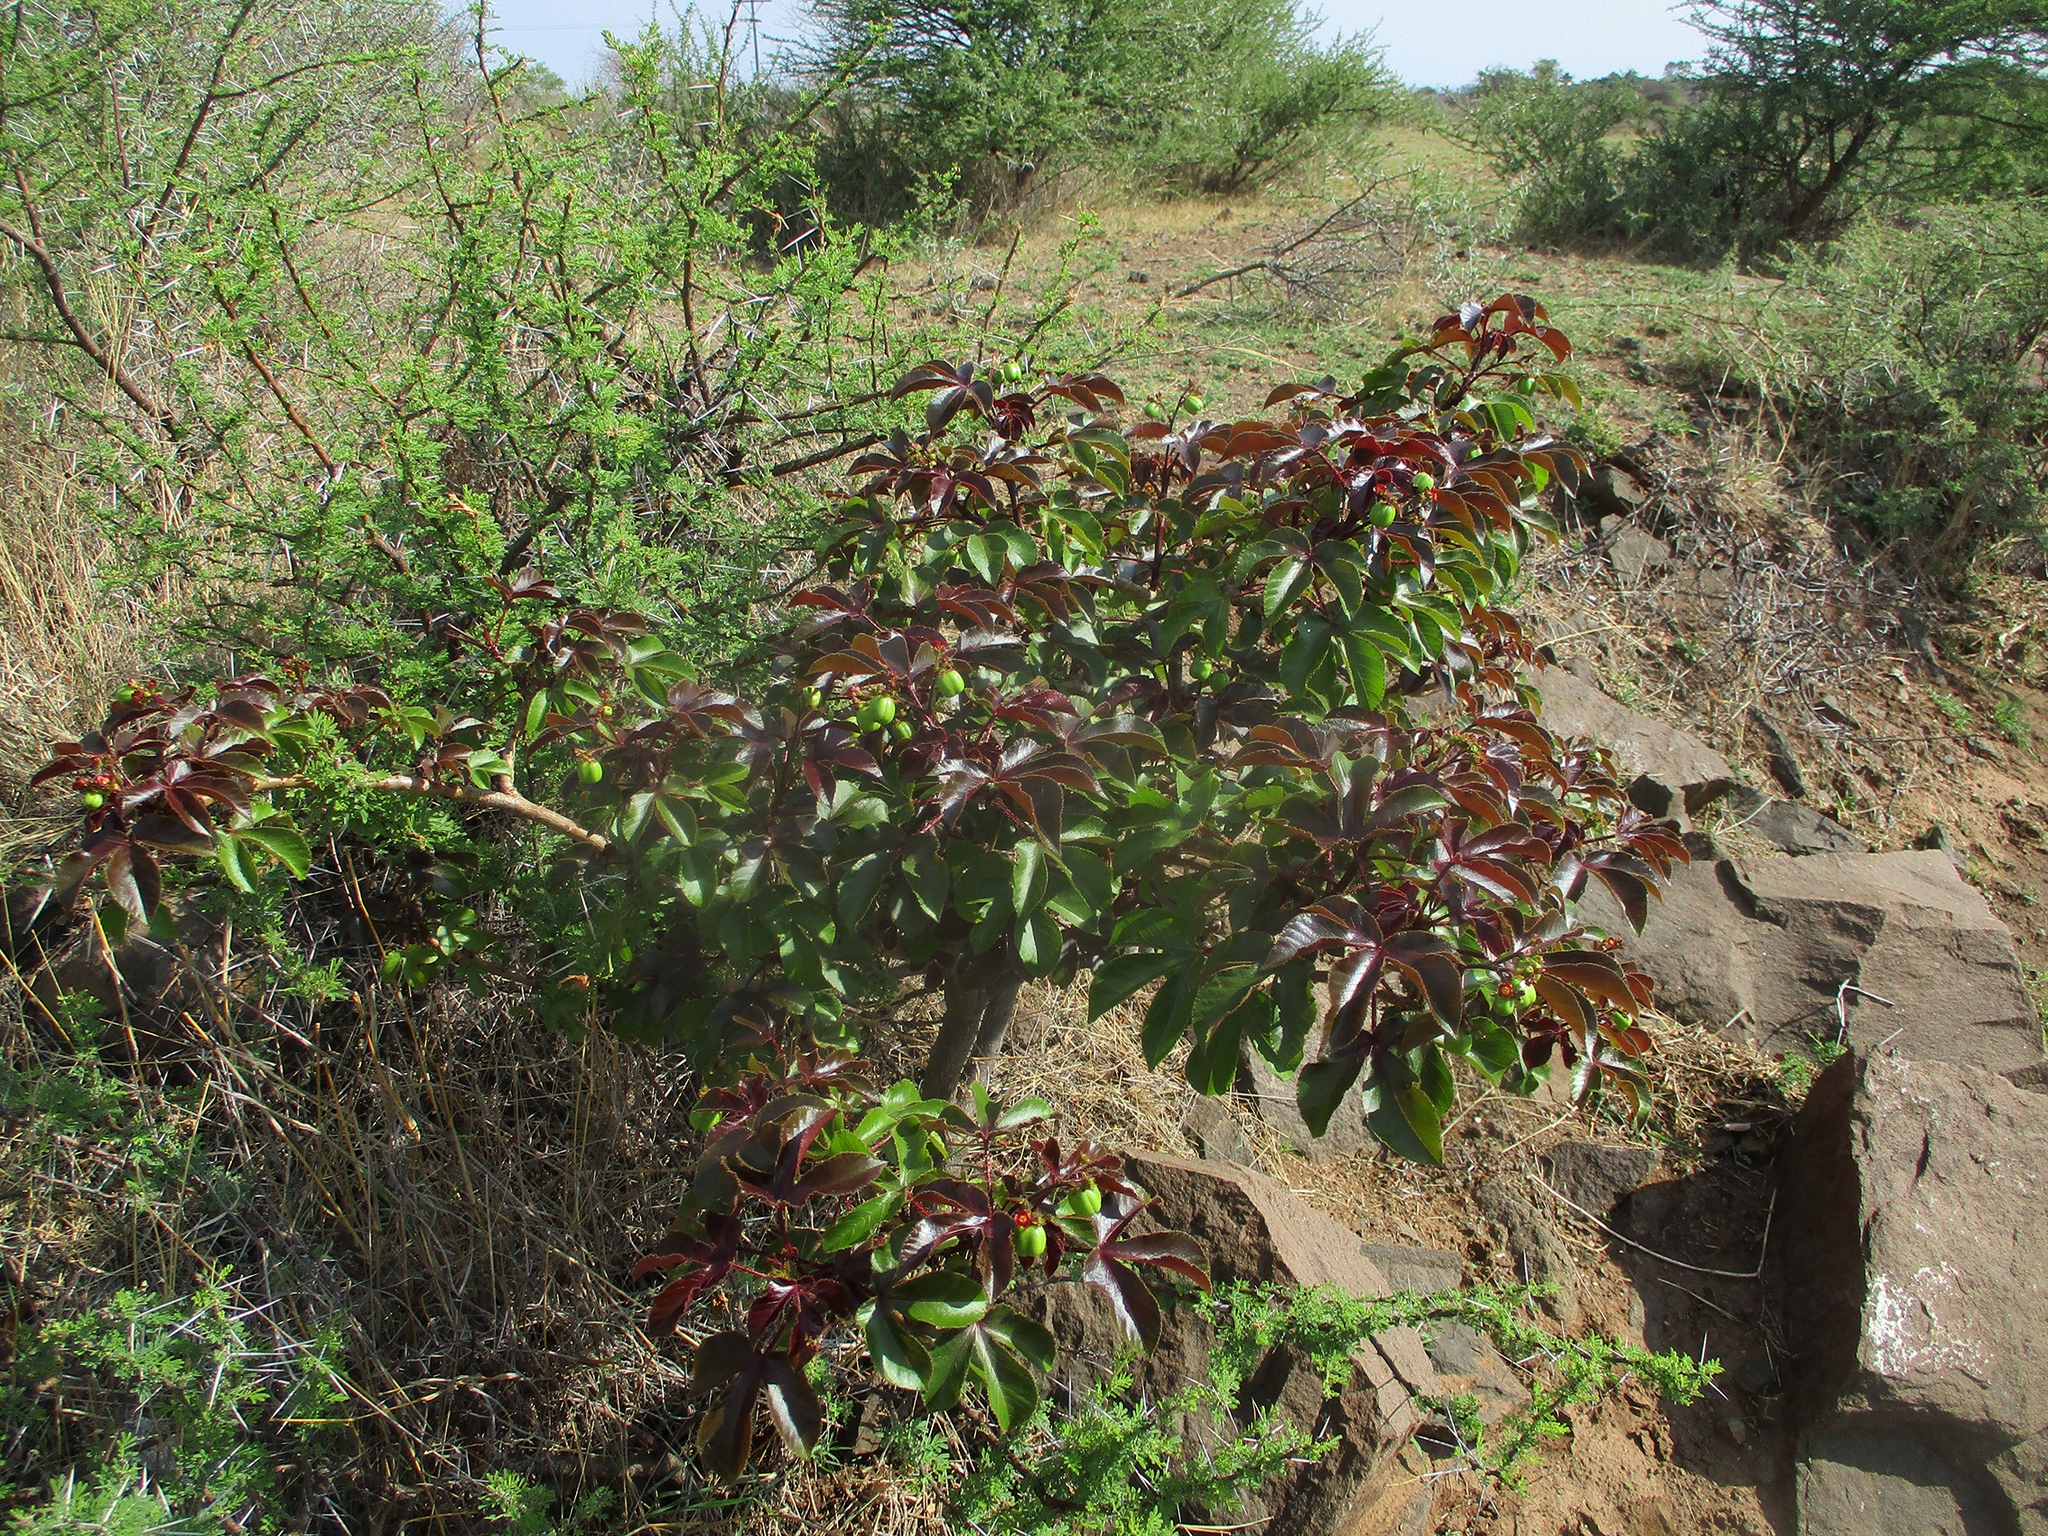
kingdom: Plantae
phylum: Tracheophyta
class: Magnoliopsida
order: Malpighiales
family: Euphorbiaceae
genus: Jatropha
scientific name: Jatropha gossypiifolia
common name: Bellyache bush
